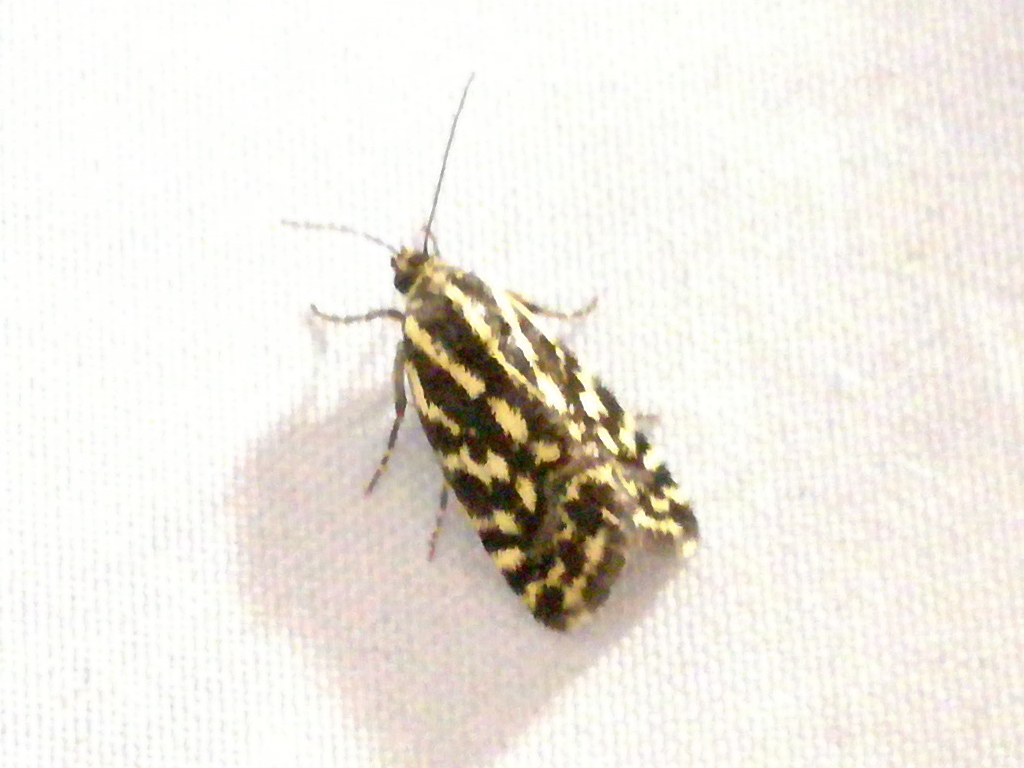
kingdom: Animalia
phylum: Arthropoda
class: Insecta
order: Lepidoptera
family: Noctuidae
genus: Acontia
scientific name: Acontia trabealis
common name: Spotted sulphur
